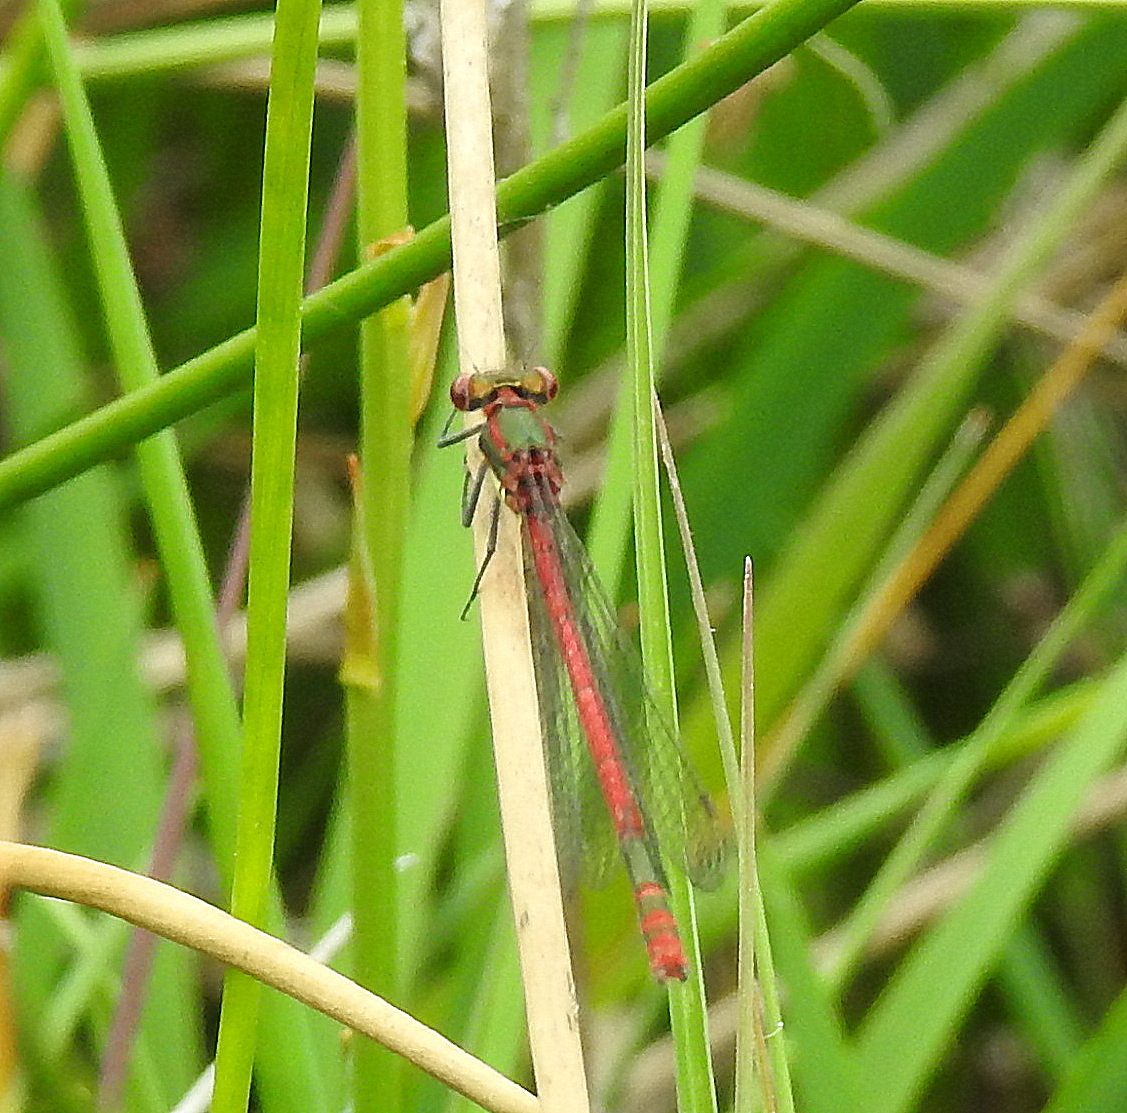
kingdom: Animalia
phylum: Arthropoda
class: Insecta
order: Odonata
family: Coenagrionidae
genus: Pyrrhosoma
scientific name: Pyrrhosoma nymphula
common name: Large red damsel
